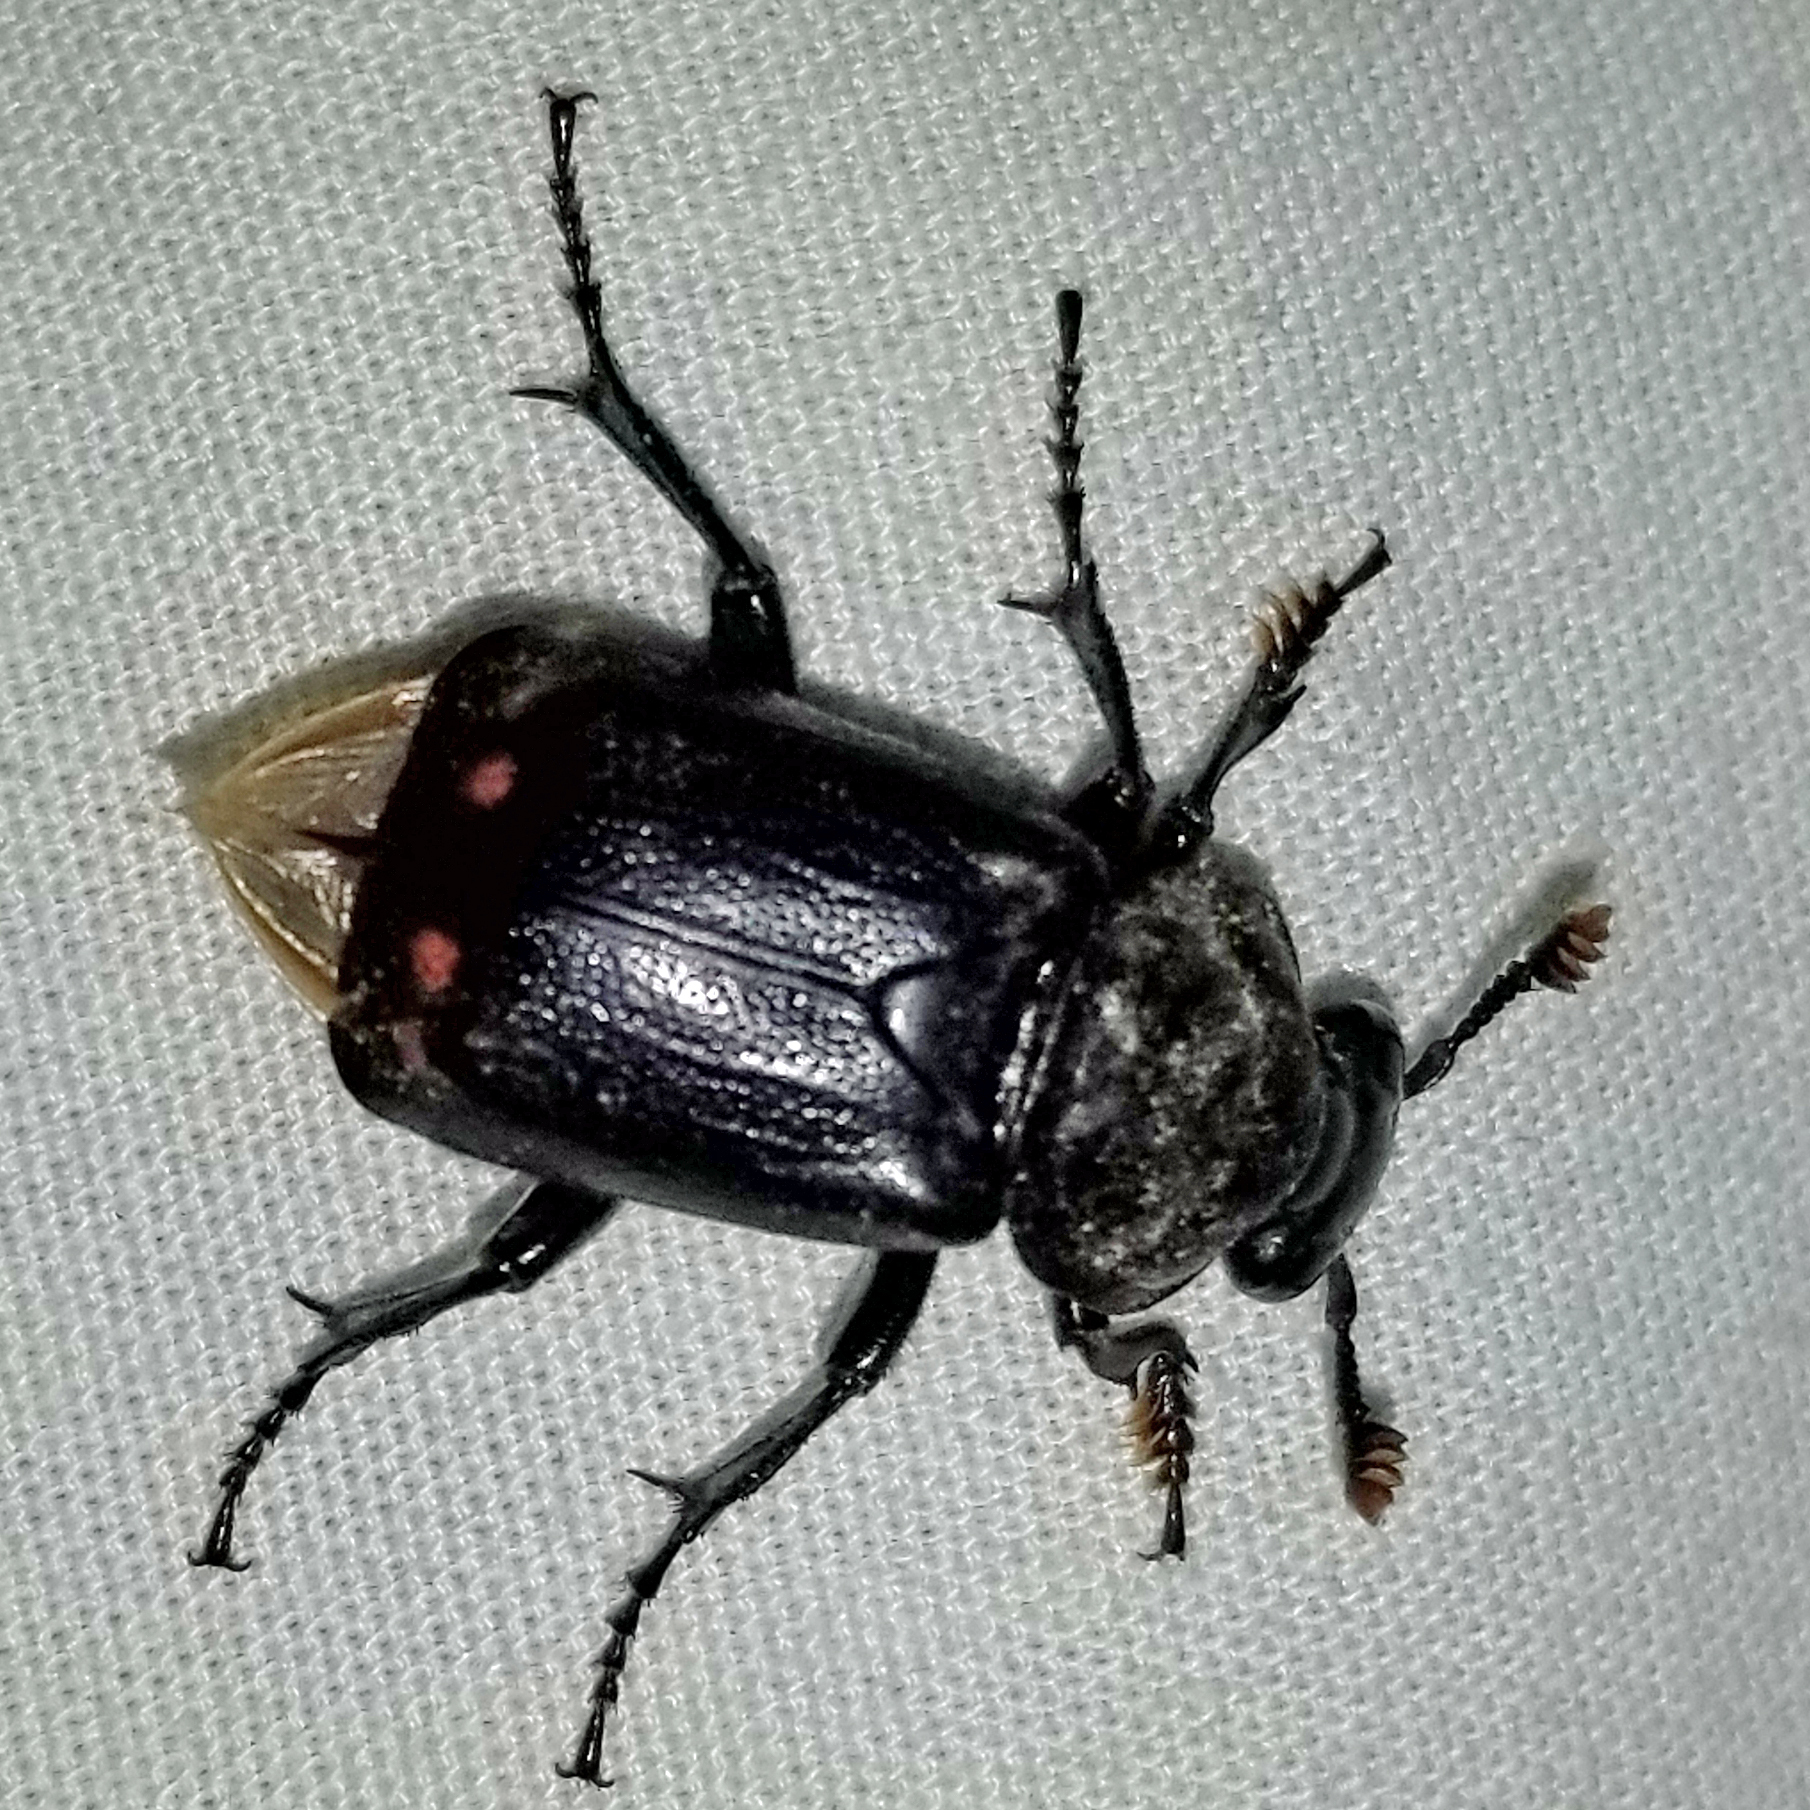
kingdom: Animalia
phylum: Arthropoda
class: Insecta
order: Coleoptera
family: Staphylinidae
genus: Nicrophorus
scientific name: Nicrophorus pustulatus
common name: Pustulated carrion beetle
